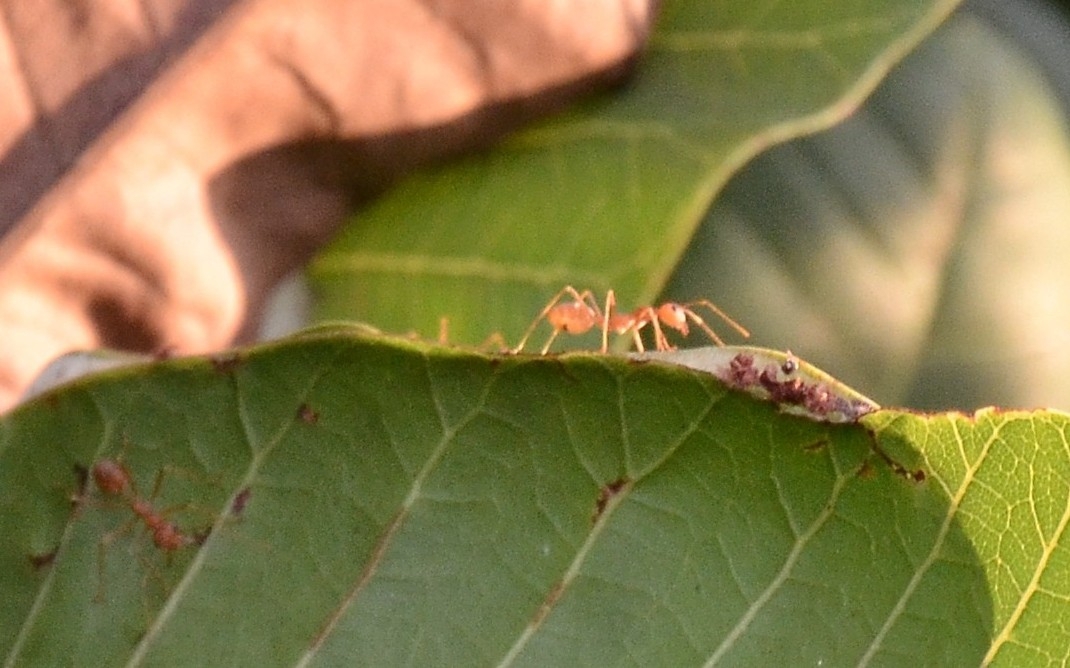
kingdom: Animalia
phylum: Arthropoda
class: Insecta
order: Hymenoptera
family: Formicidae
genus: Oecophylla
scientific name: Oecophylla smaragdina
